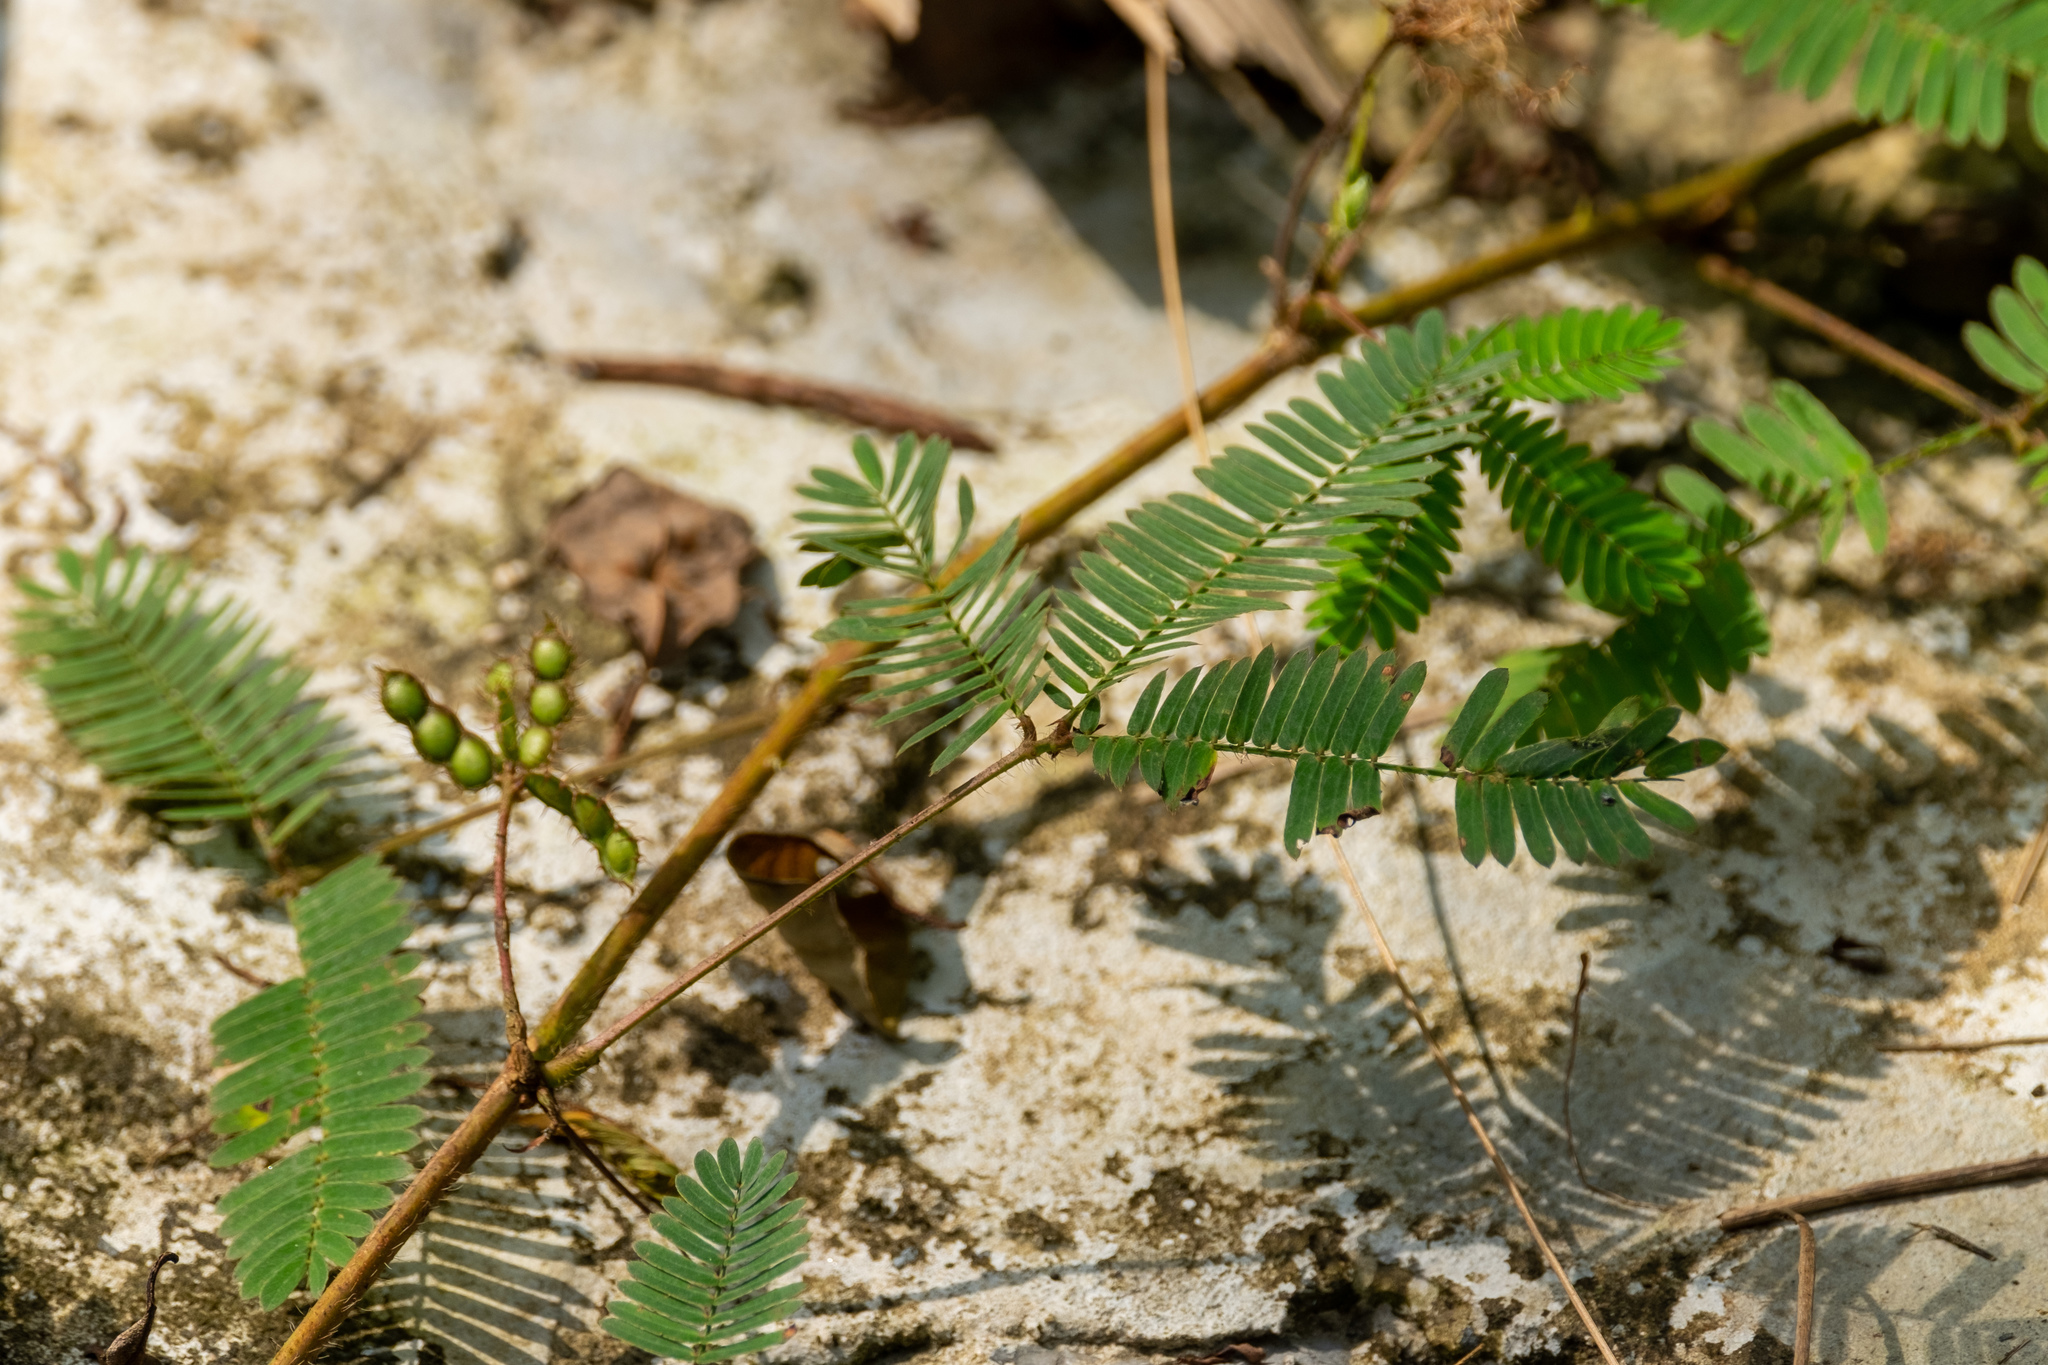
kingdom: Plantae
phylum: Tracheophyta
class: Magnoliopsida
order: Fabales
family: Fabaceae
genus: Mimosa
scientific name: Mimosa pudica
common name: Sensitive plant
